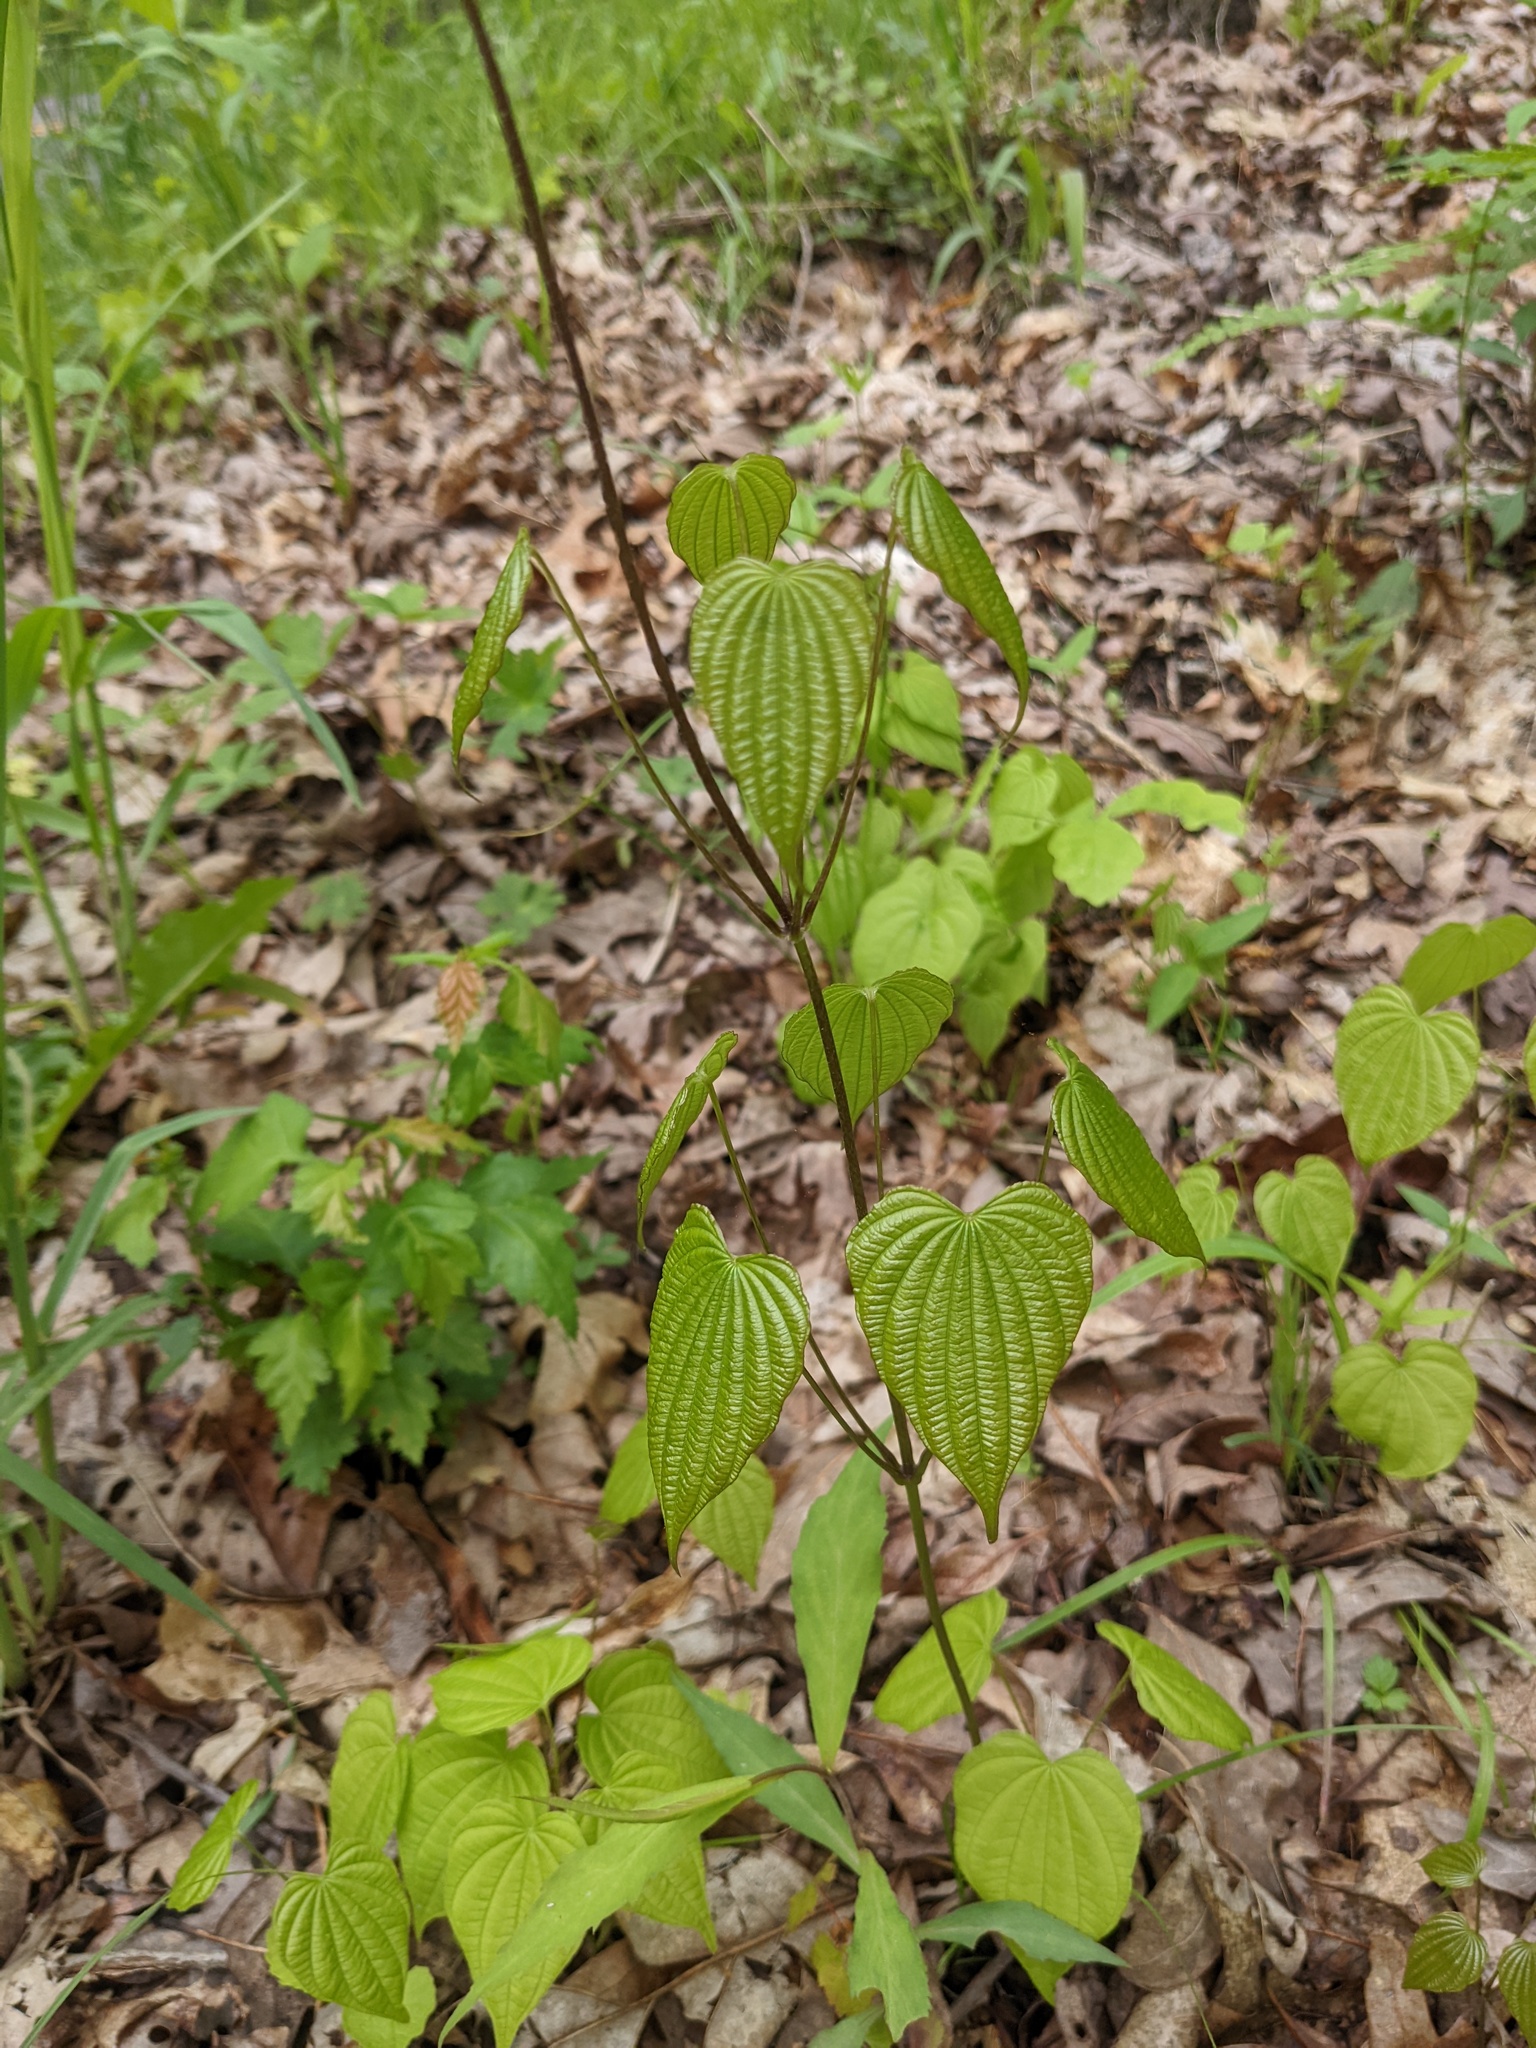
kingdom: Plantae
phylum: Tracheophyta
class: Liliopsida
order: Dioscoreales
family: Dioscoreaceae
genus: Dioscorea
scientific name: Dioscorea villosa
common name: Wild yam
